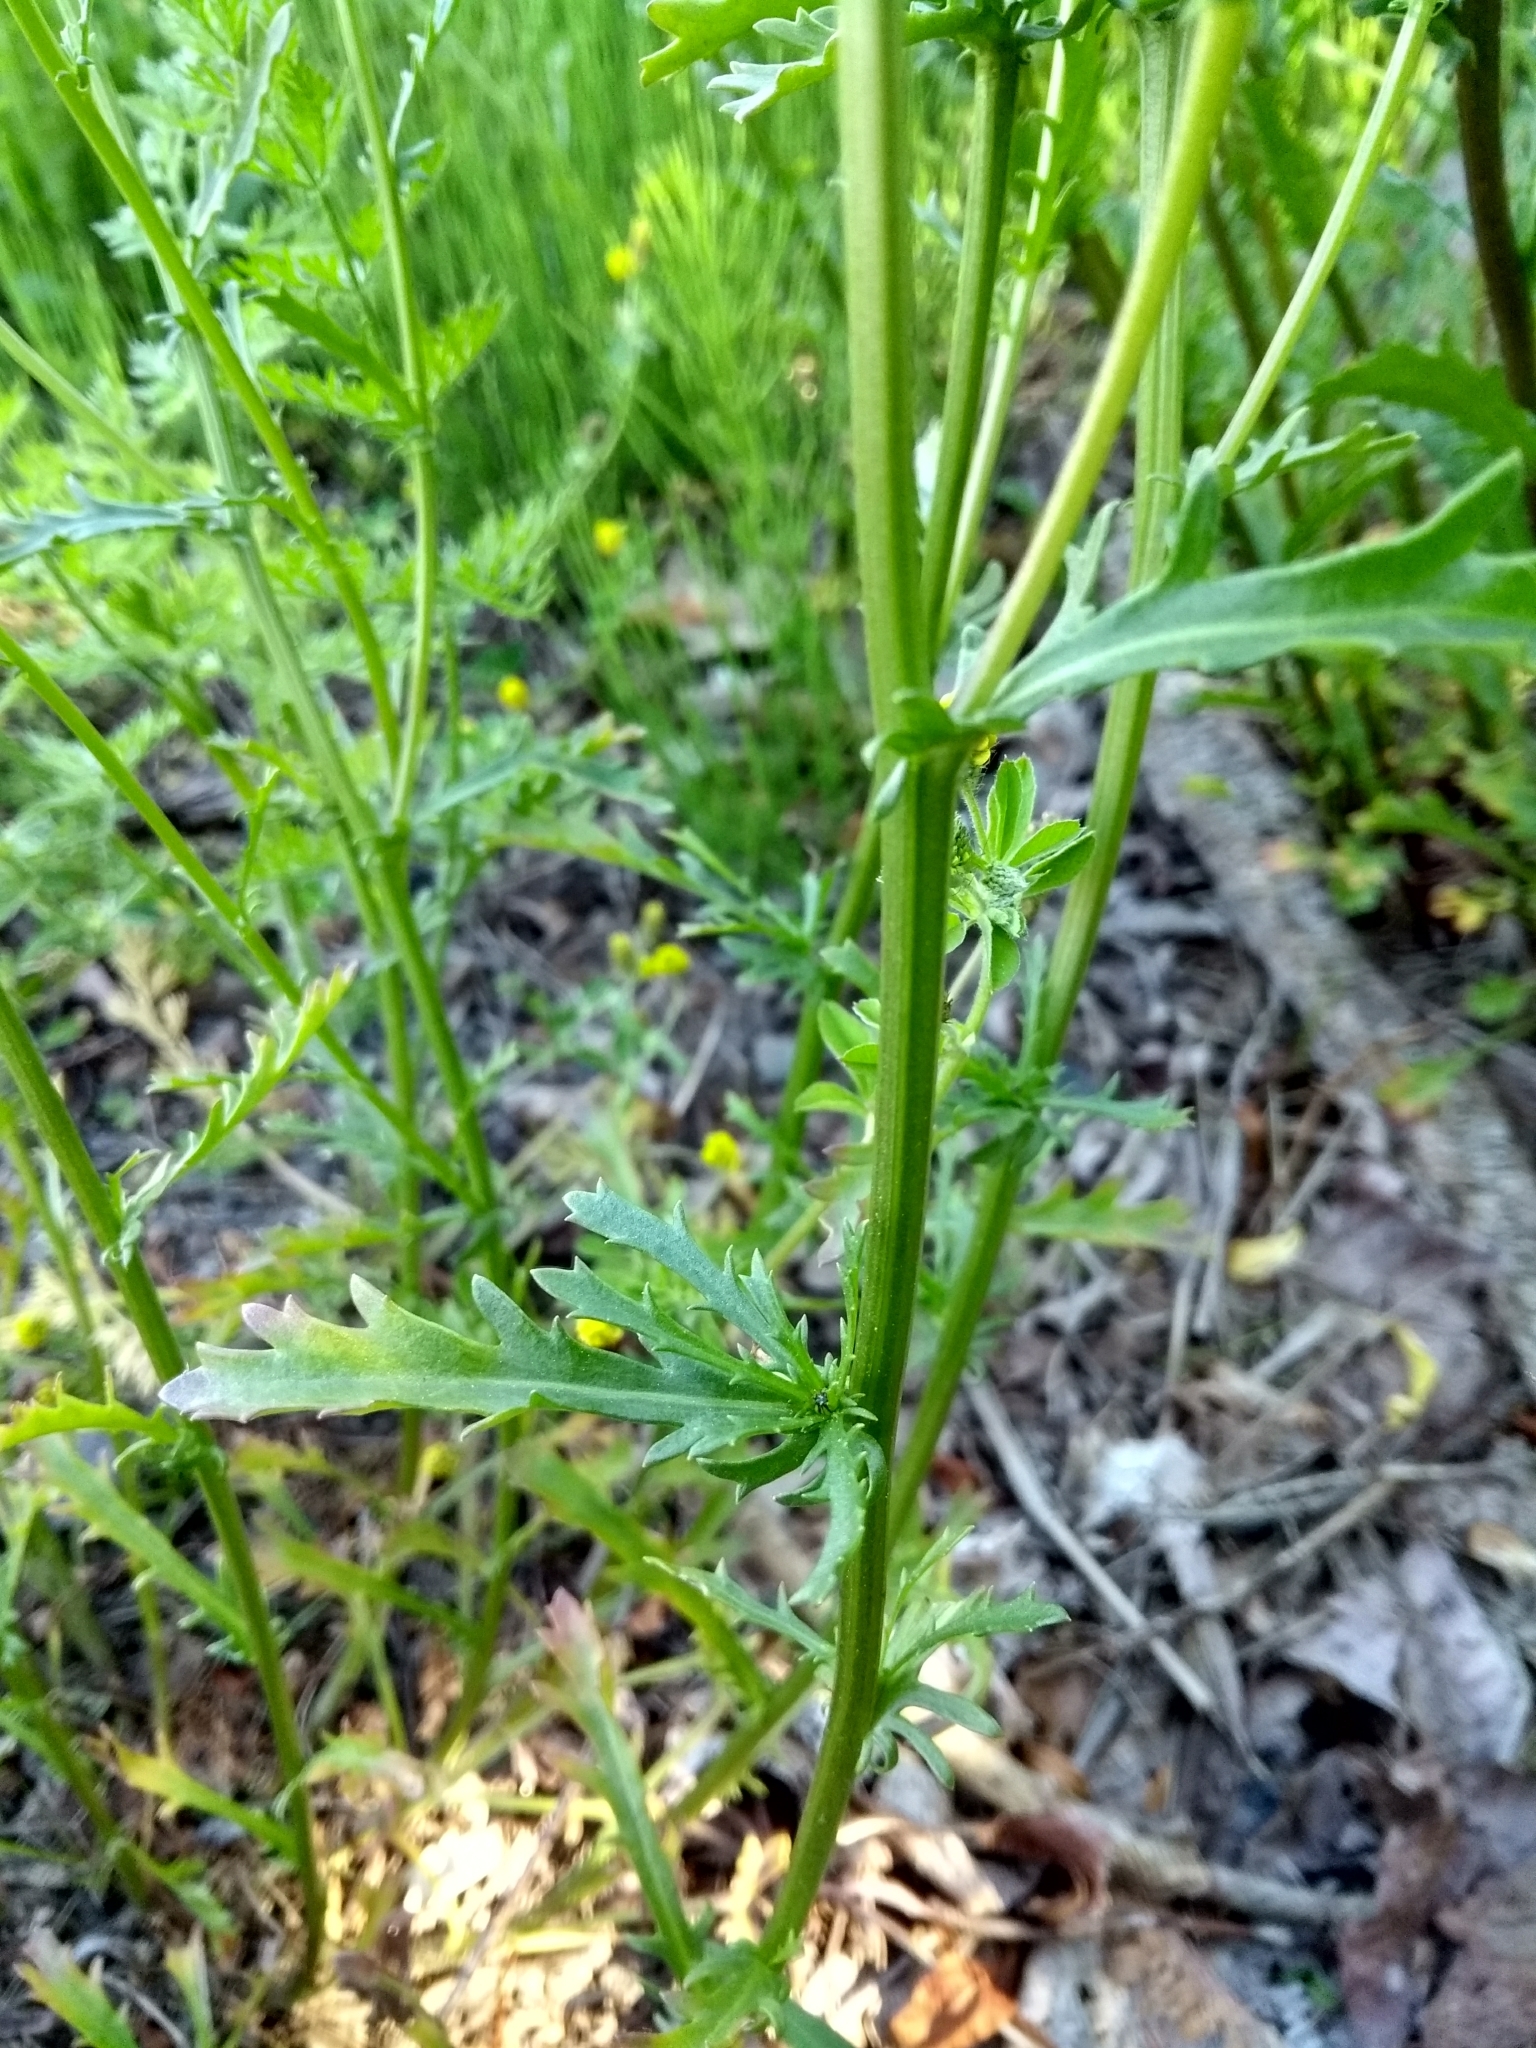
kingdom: Plantae
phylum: Tracheophyta
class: Magnoliopsida
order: Asterales
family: Asteraceae
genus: Leucanthemum
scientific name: Leucanthemum vulgare
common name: Oxeye daisy
